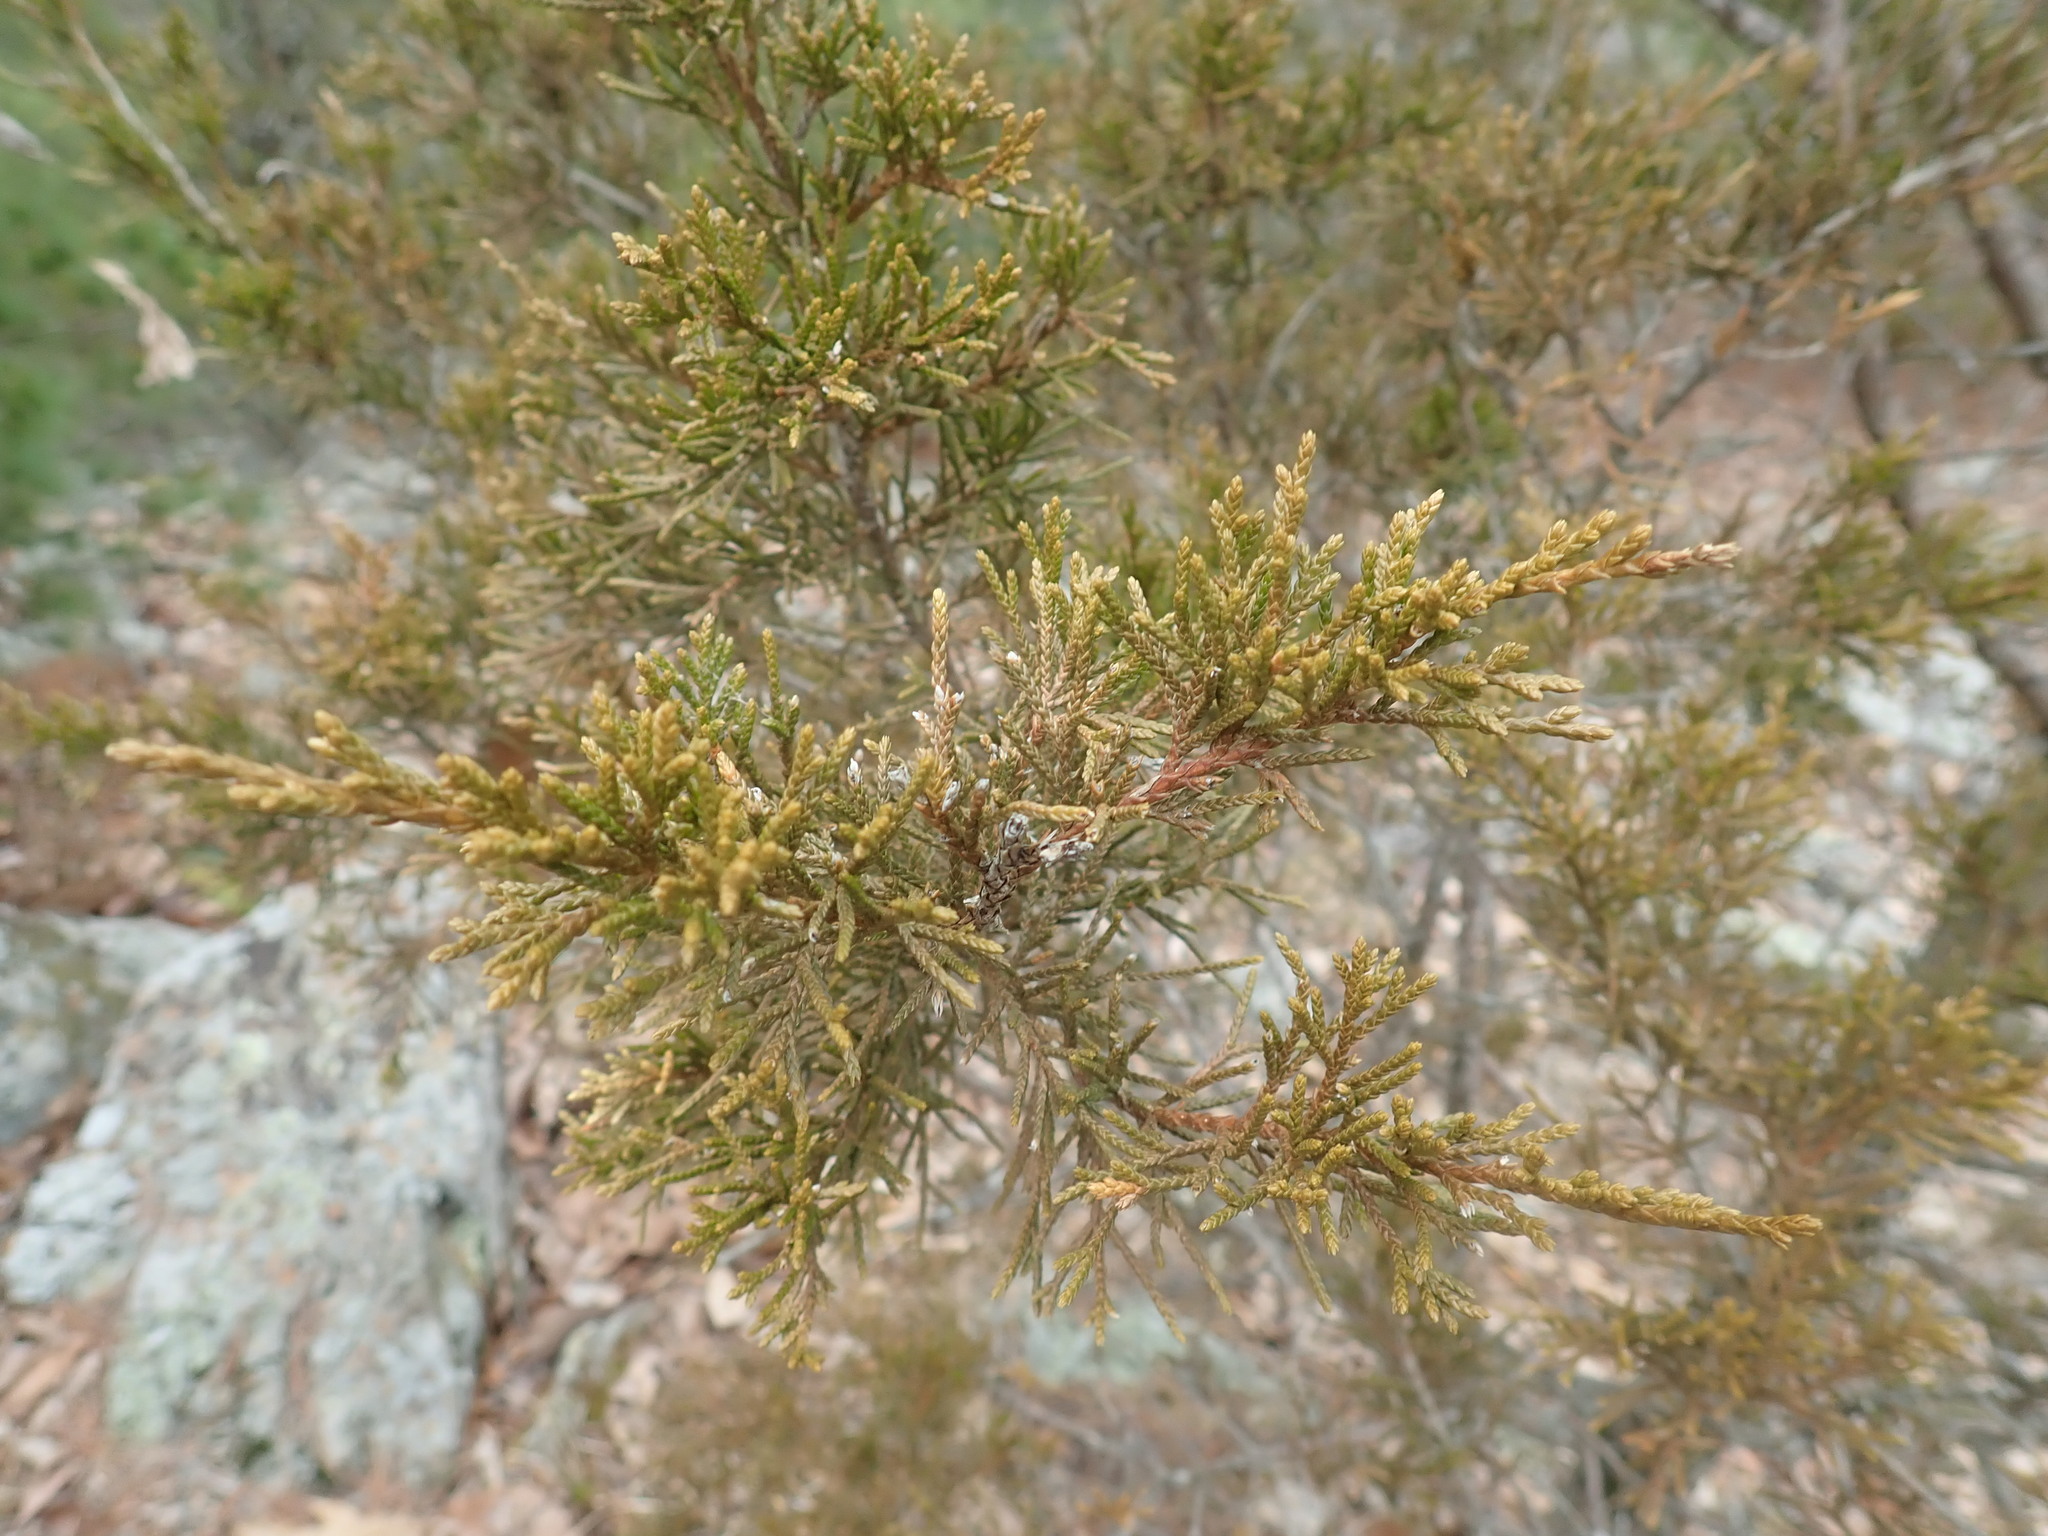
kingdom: Plantae
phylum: Tracheophyta
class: Pinopsida
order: Pinales
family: Cupressaceae
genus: Juniperus
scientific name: Juniperus virginiana
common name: Red juniper
